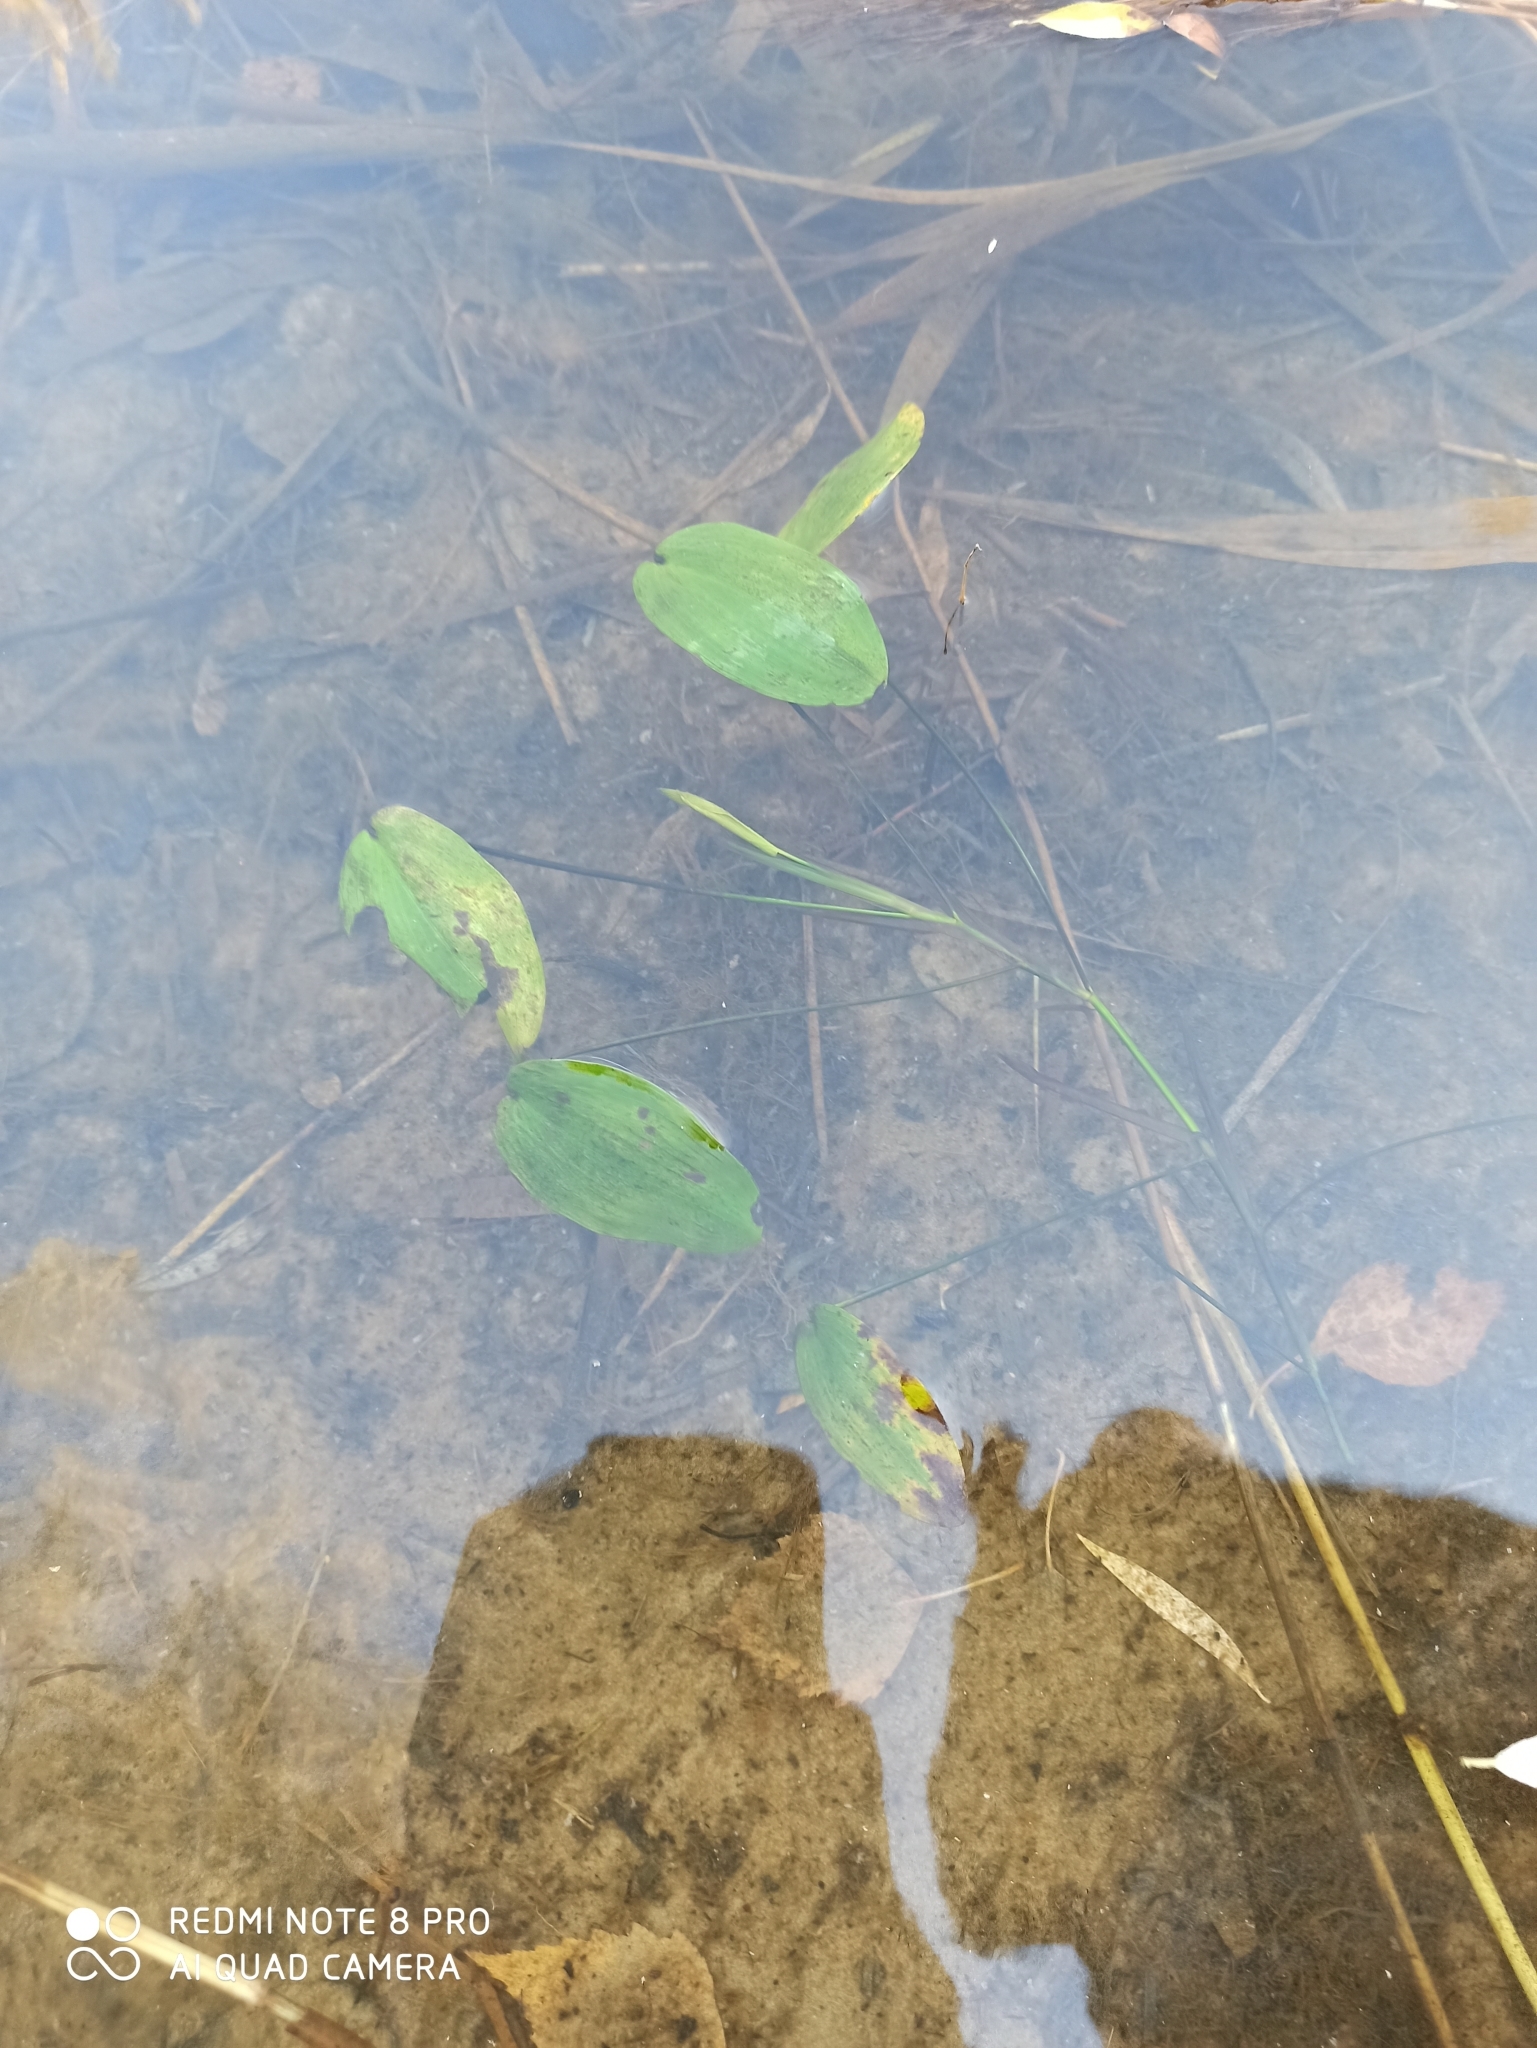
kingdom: Plantae
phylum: Tracheophyta
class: Liliopsida
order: Alismatales
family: Potamogetonaceae
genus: Potamogeton
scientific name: Potamogeton natans
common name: Broad-leaved pondweed
